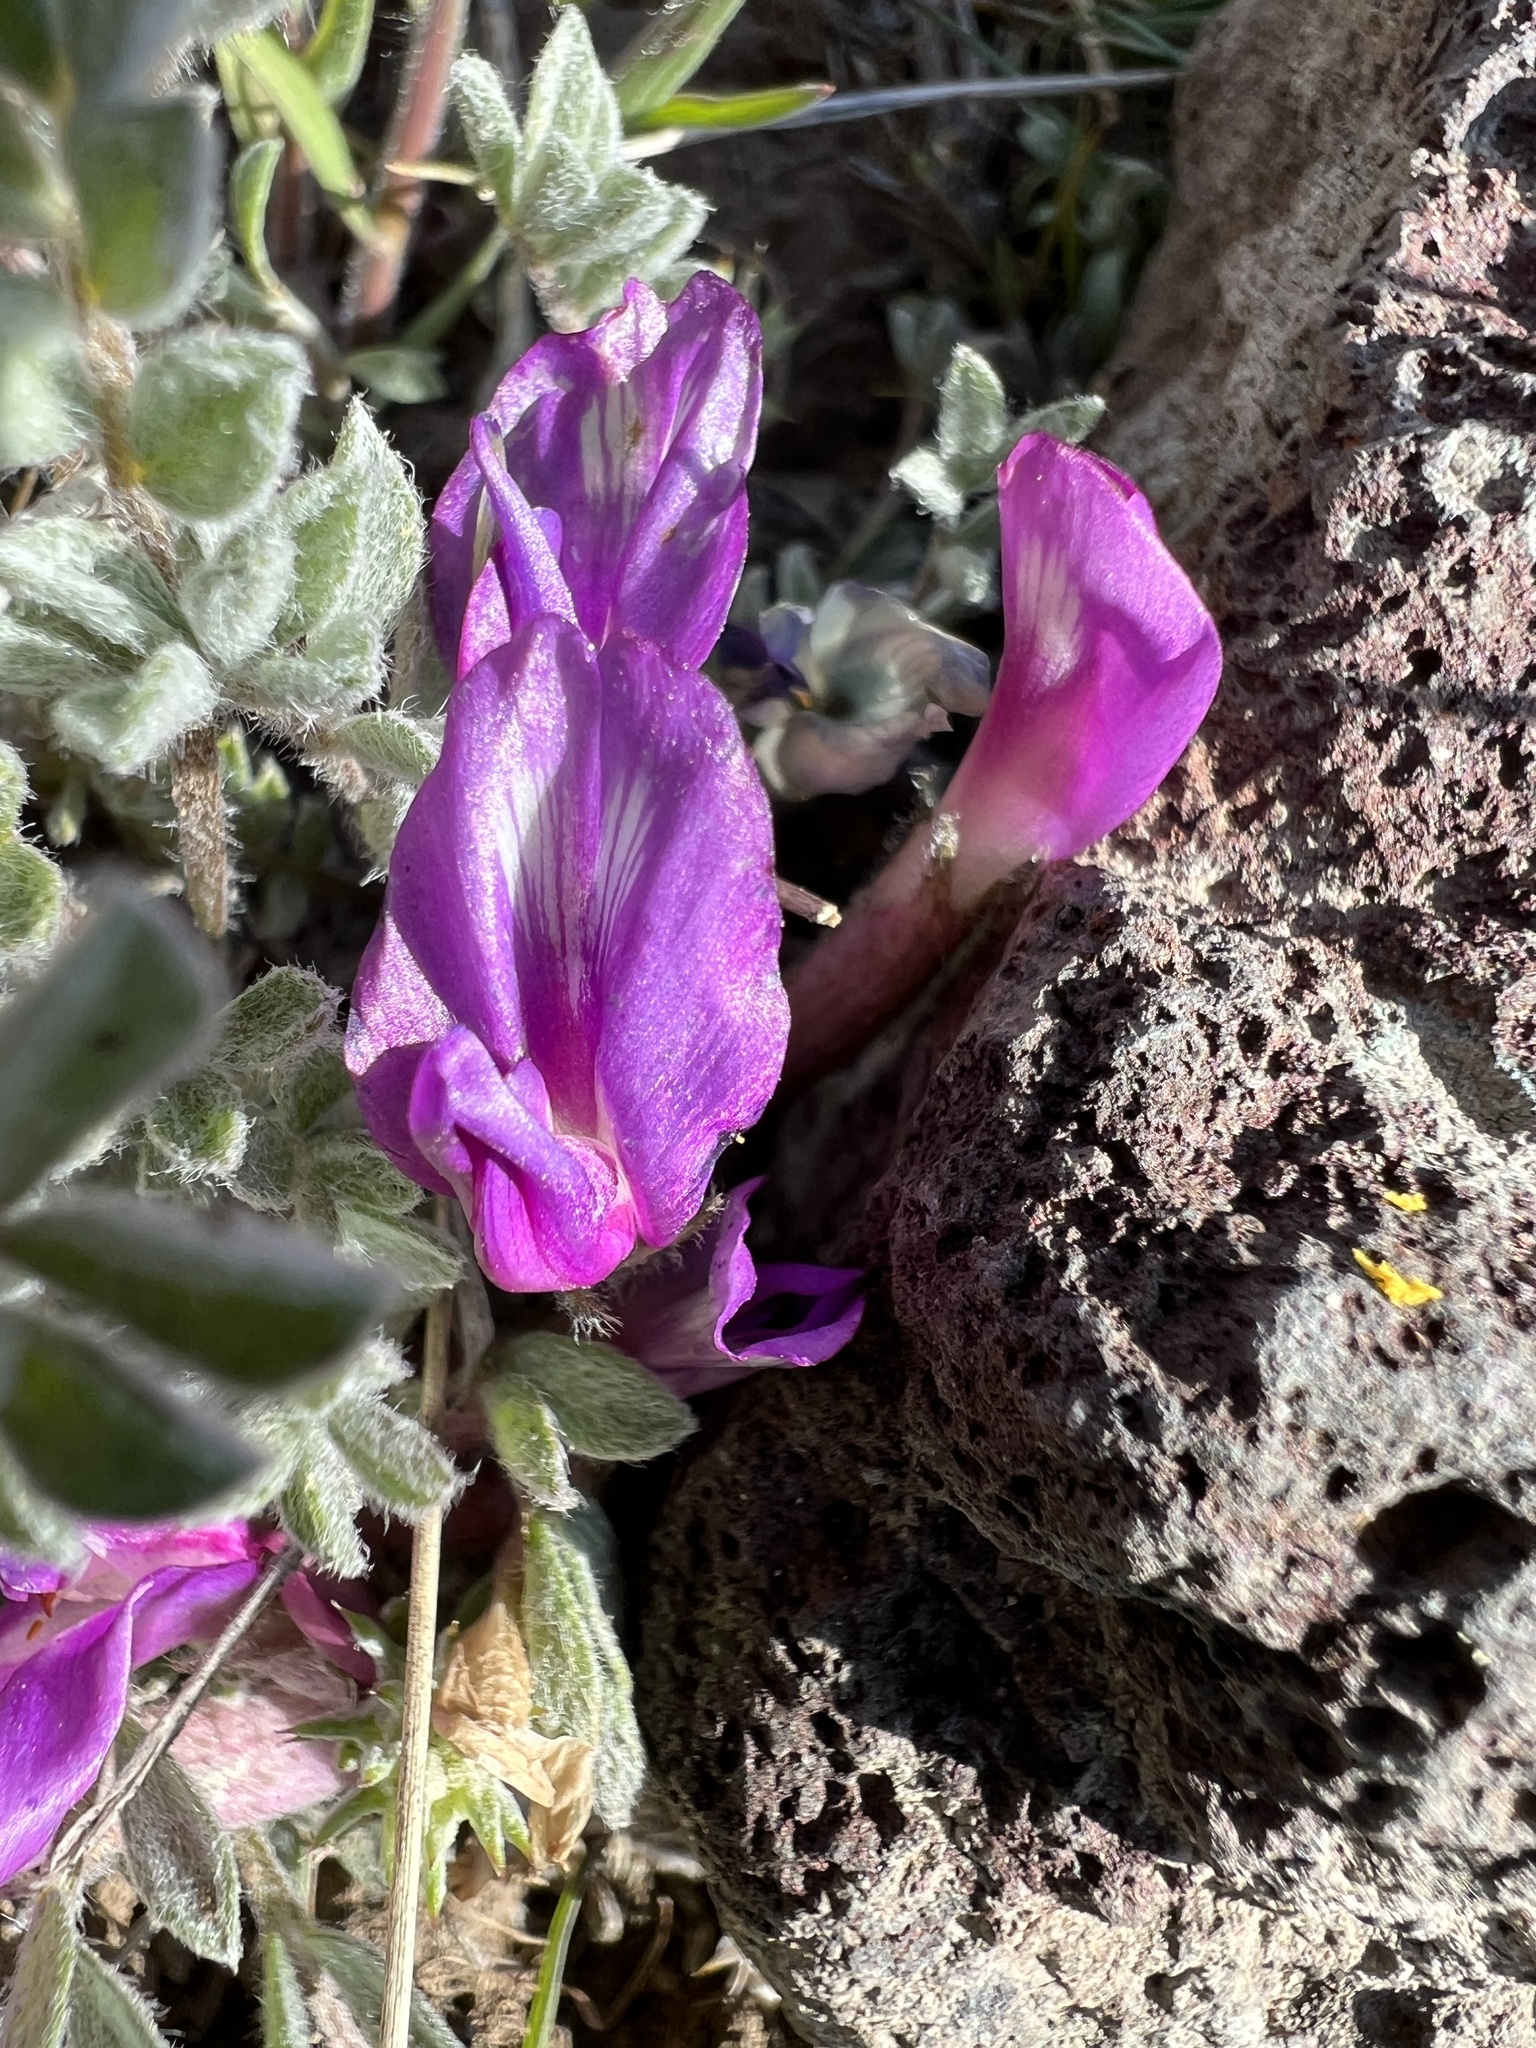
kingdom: Plantae
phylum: Tracheophyta
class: Magnoliopsida
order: Fabales
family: Fabaceae
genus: Astragalus
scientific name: Astragalus purshii
